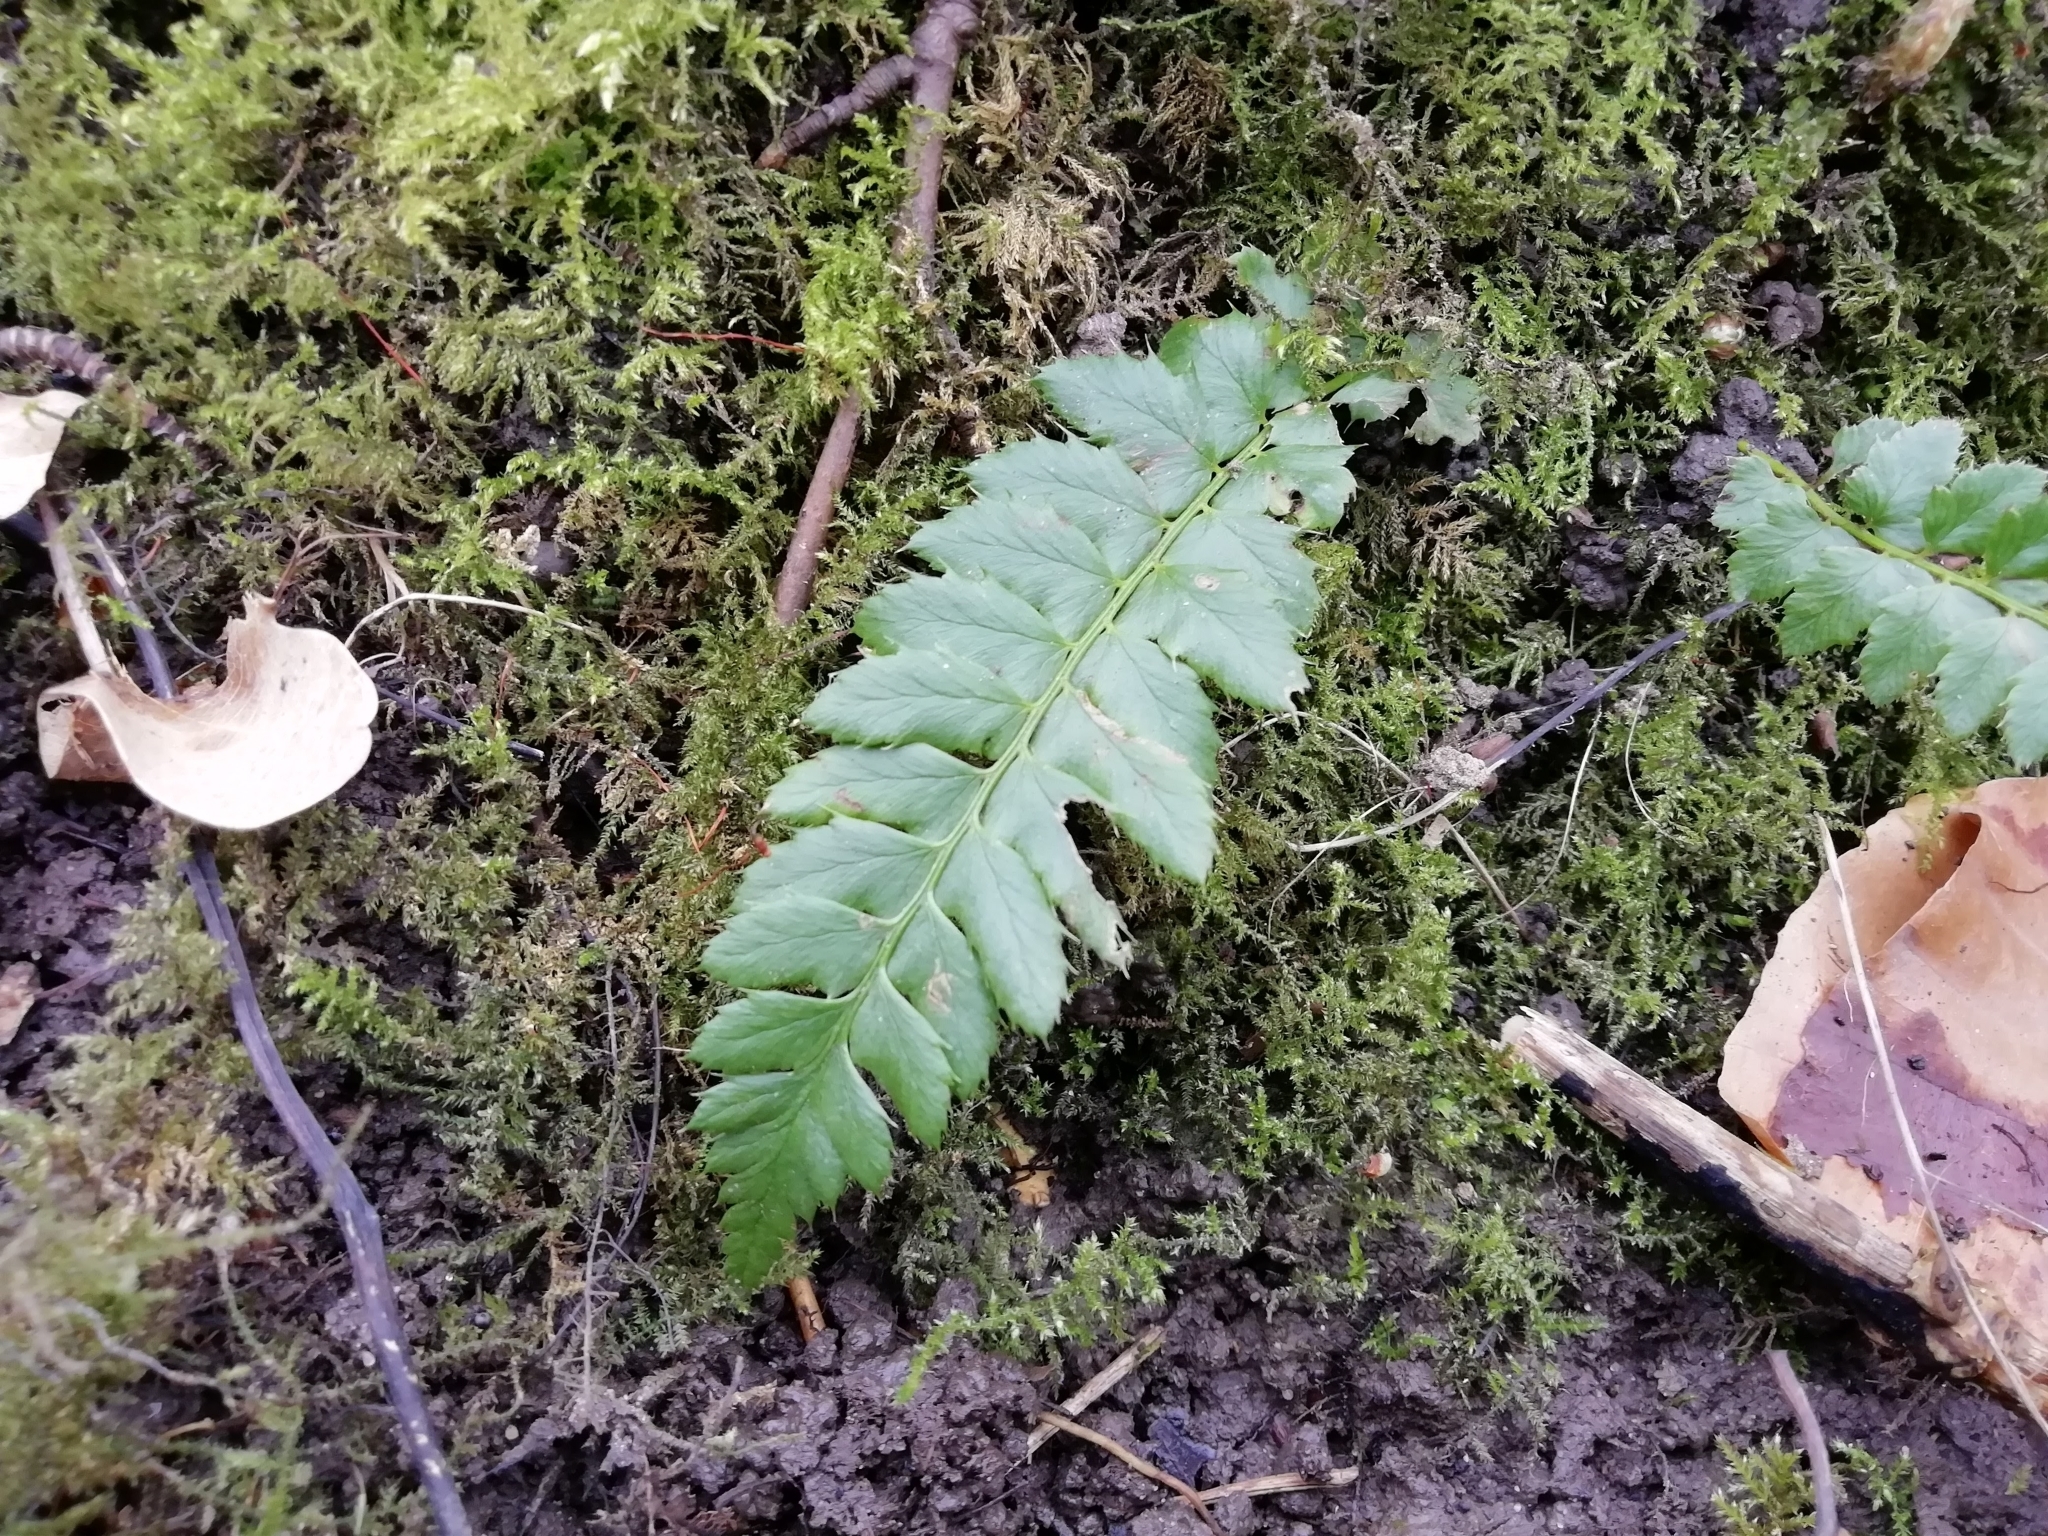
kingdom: Plantae
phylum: Tracheophyta
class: Polypodiopsida
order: Polypodiales
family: Dryopteridaceae
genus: Polystichum
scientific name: Polystichum aculeatum
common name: Hard shield-fern
